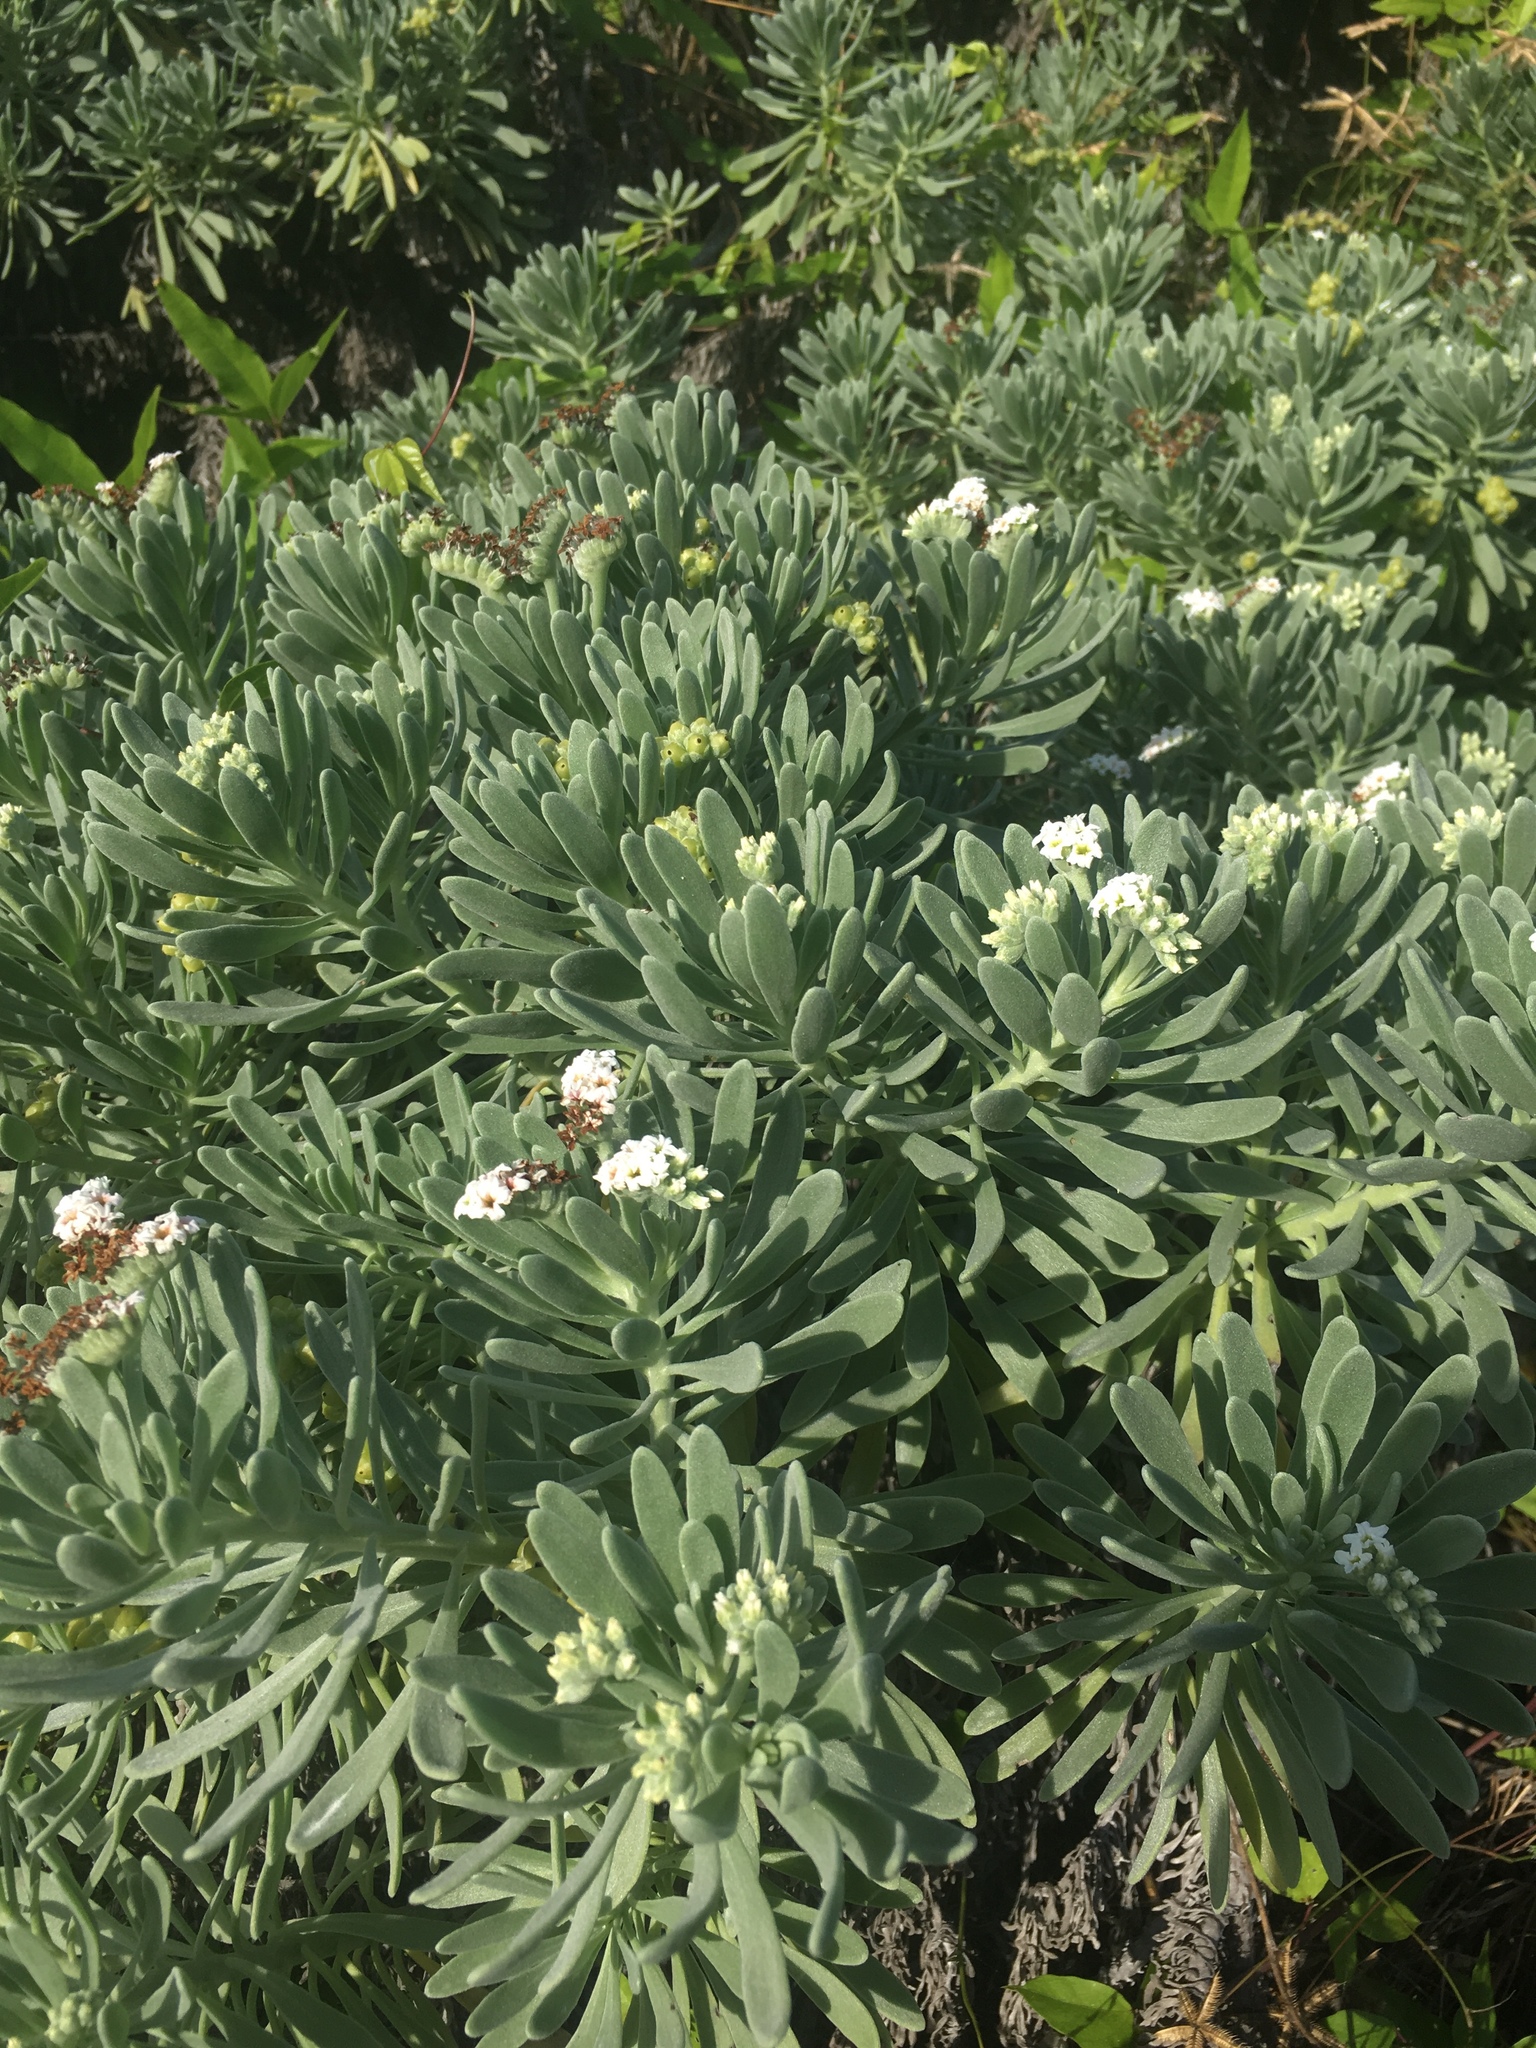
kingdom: Plantae
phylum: Tracheophyta
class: Magnoliopsida
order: Boraginales
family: Heliotropiaceae
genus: Tournefortia
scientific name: Tournefortia gnaphalodes
